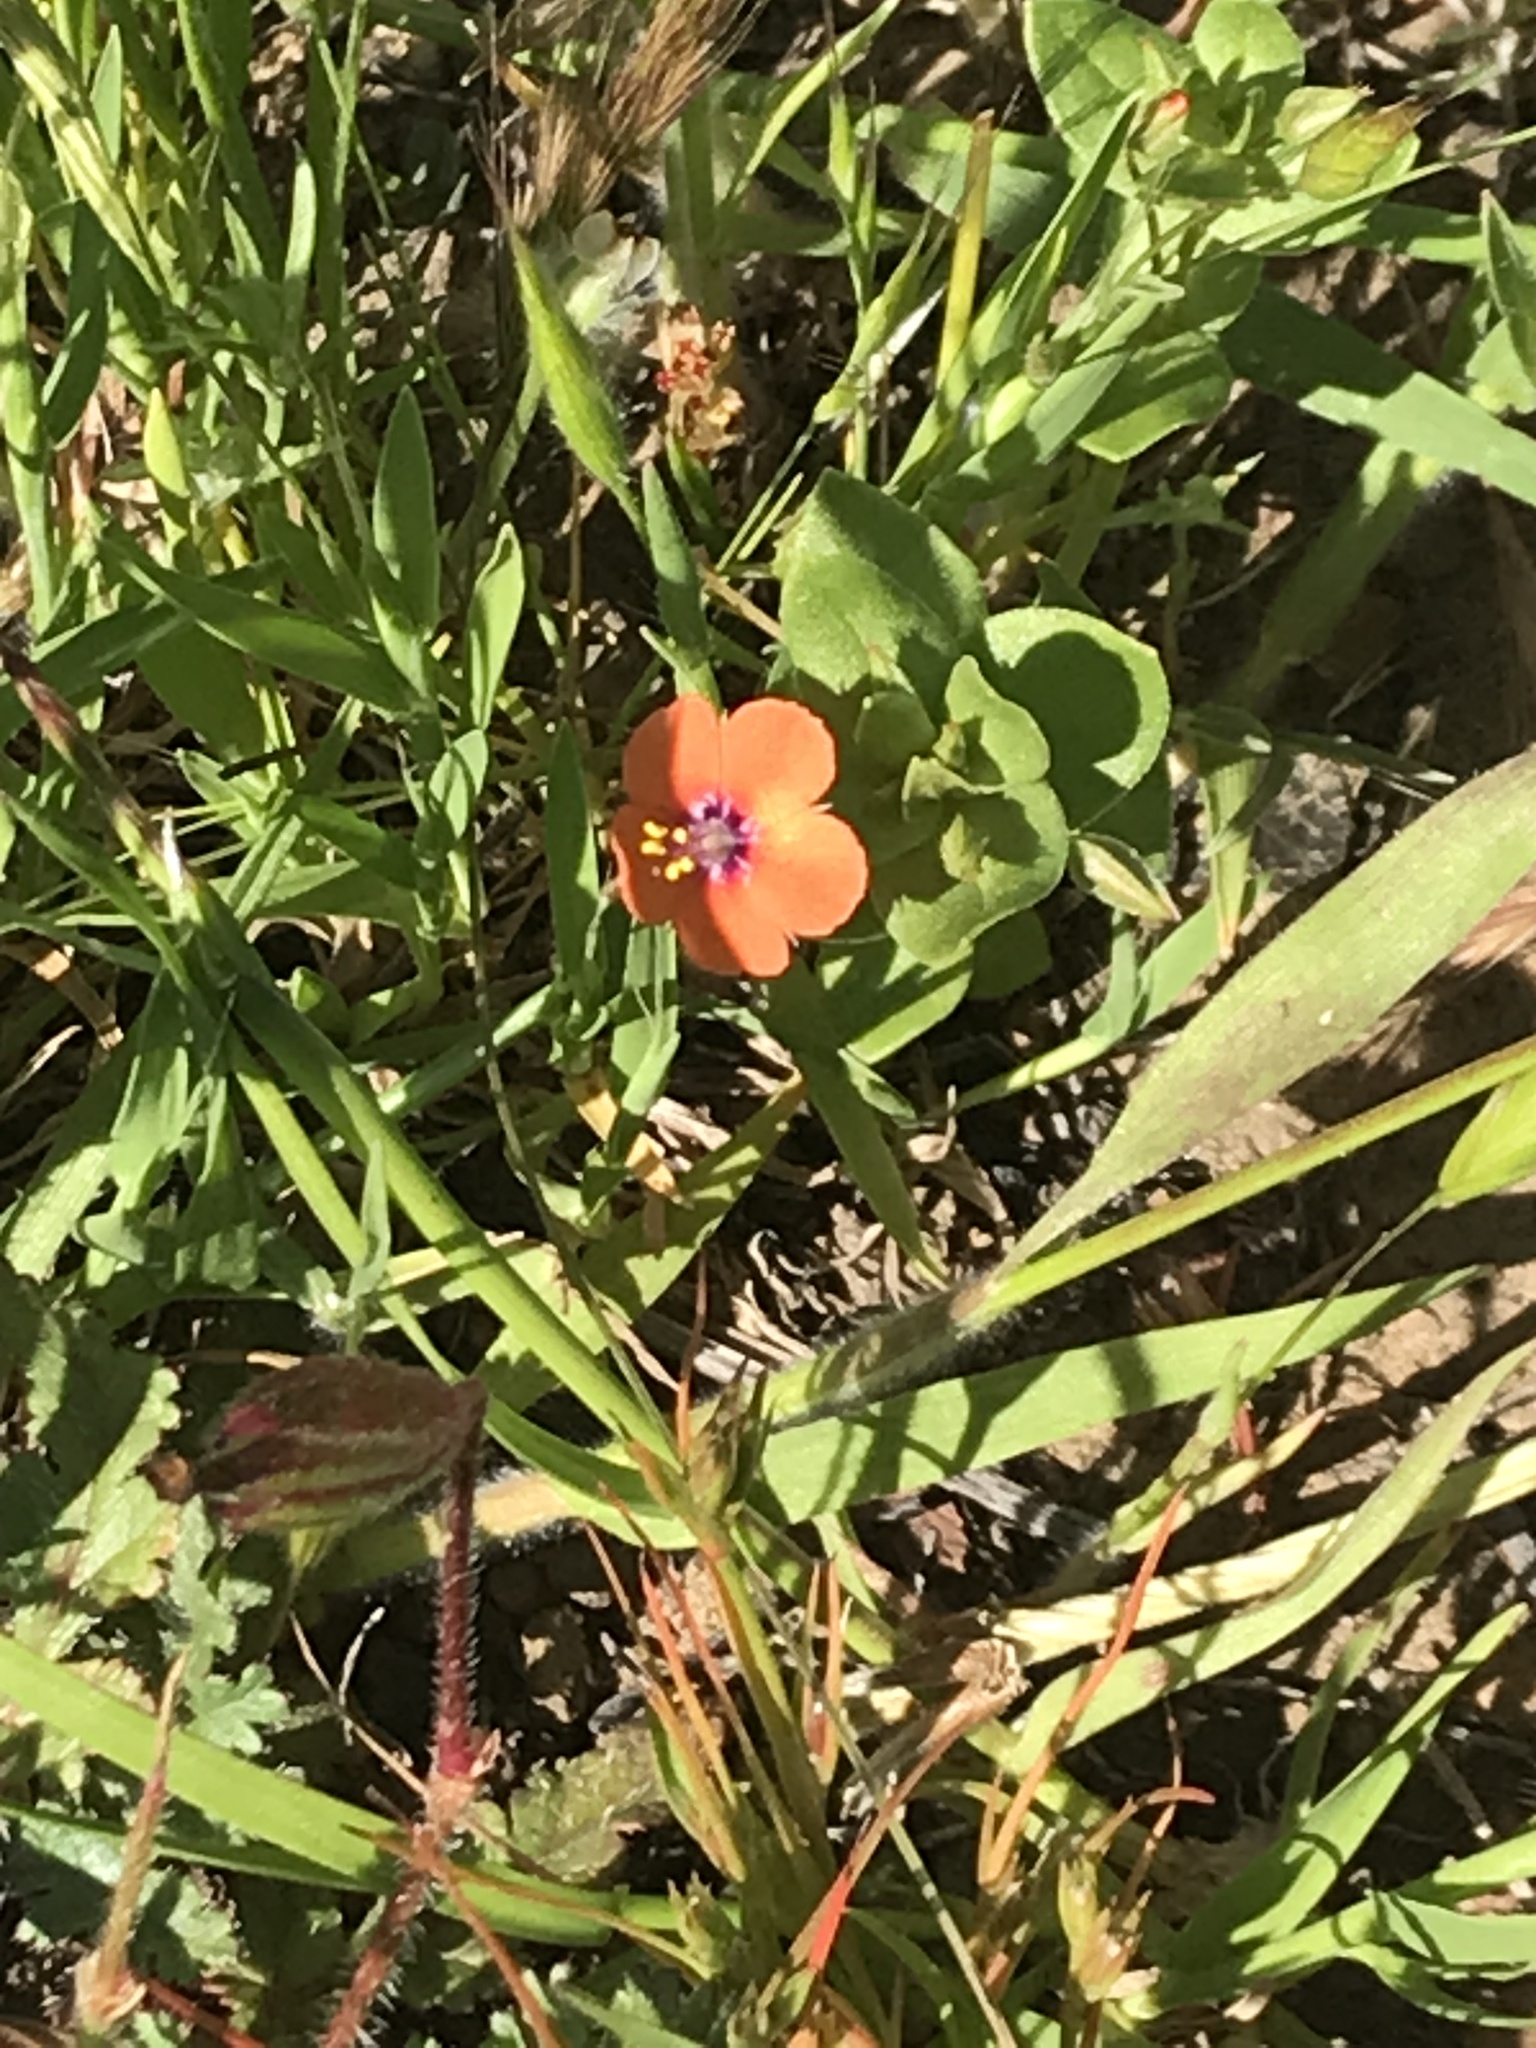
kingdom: Plantae
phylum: Tracheophyta
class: Magnoliopsida
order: Ericales
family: Primulaceae
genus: Lysimachia
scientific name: Lysimachia arvensis
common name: Scarlet pimpernel
